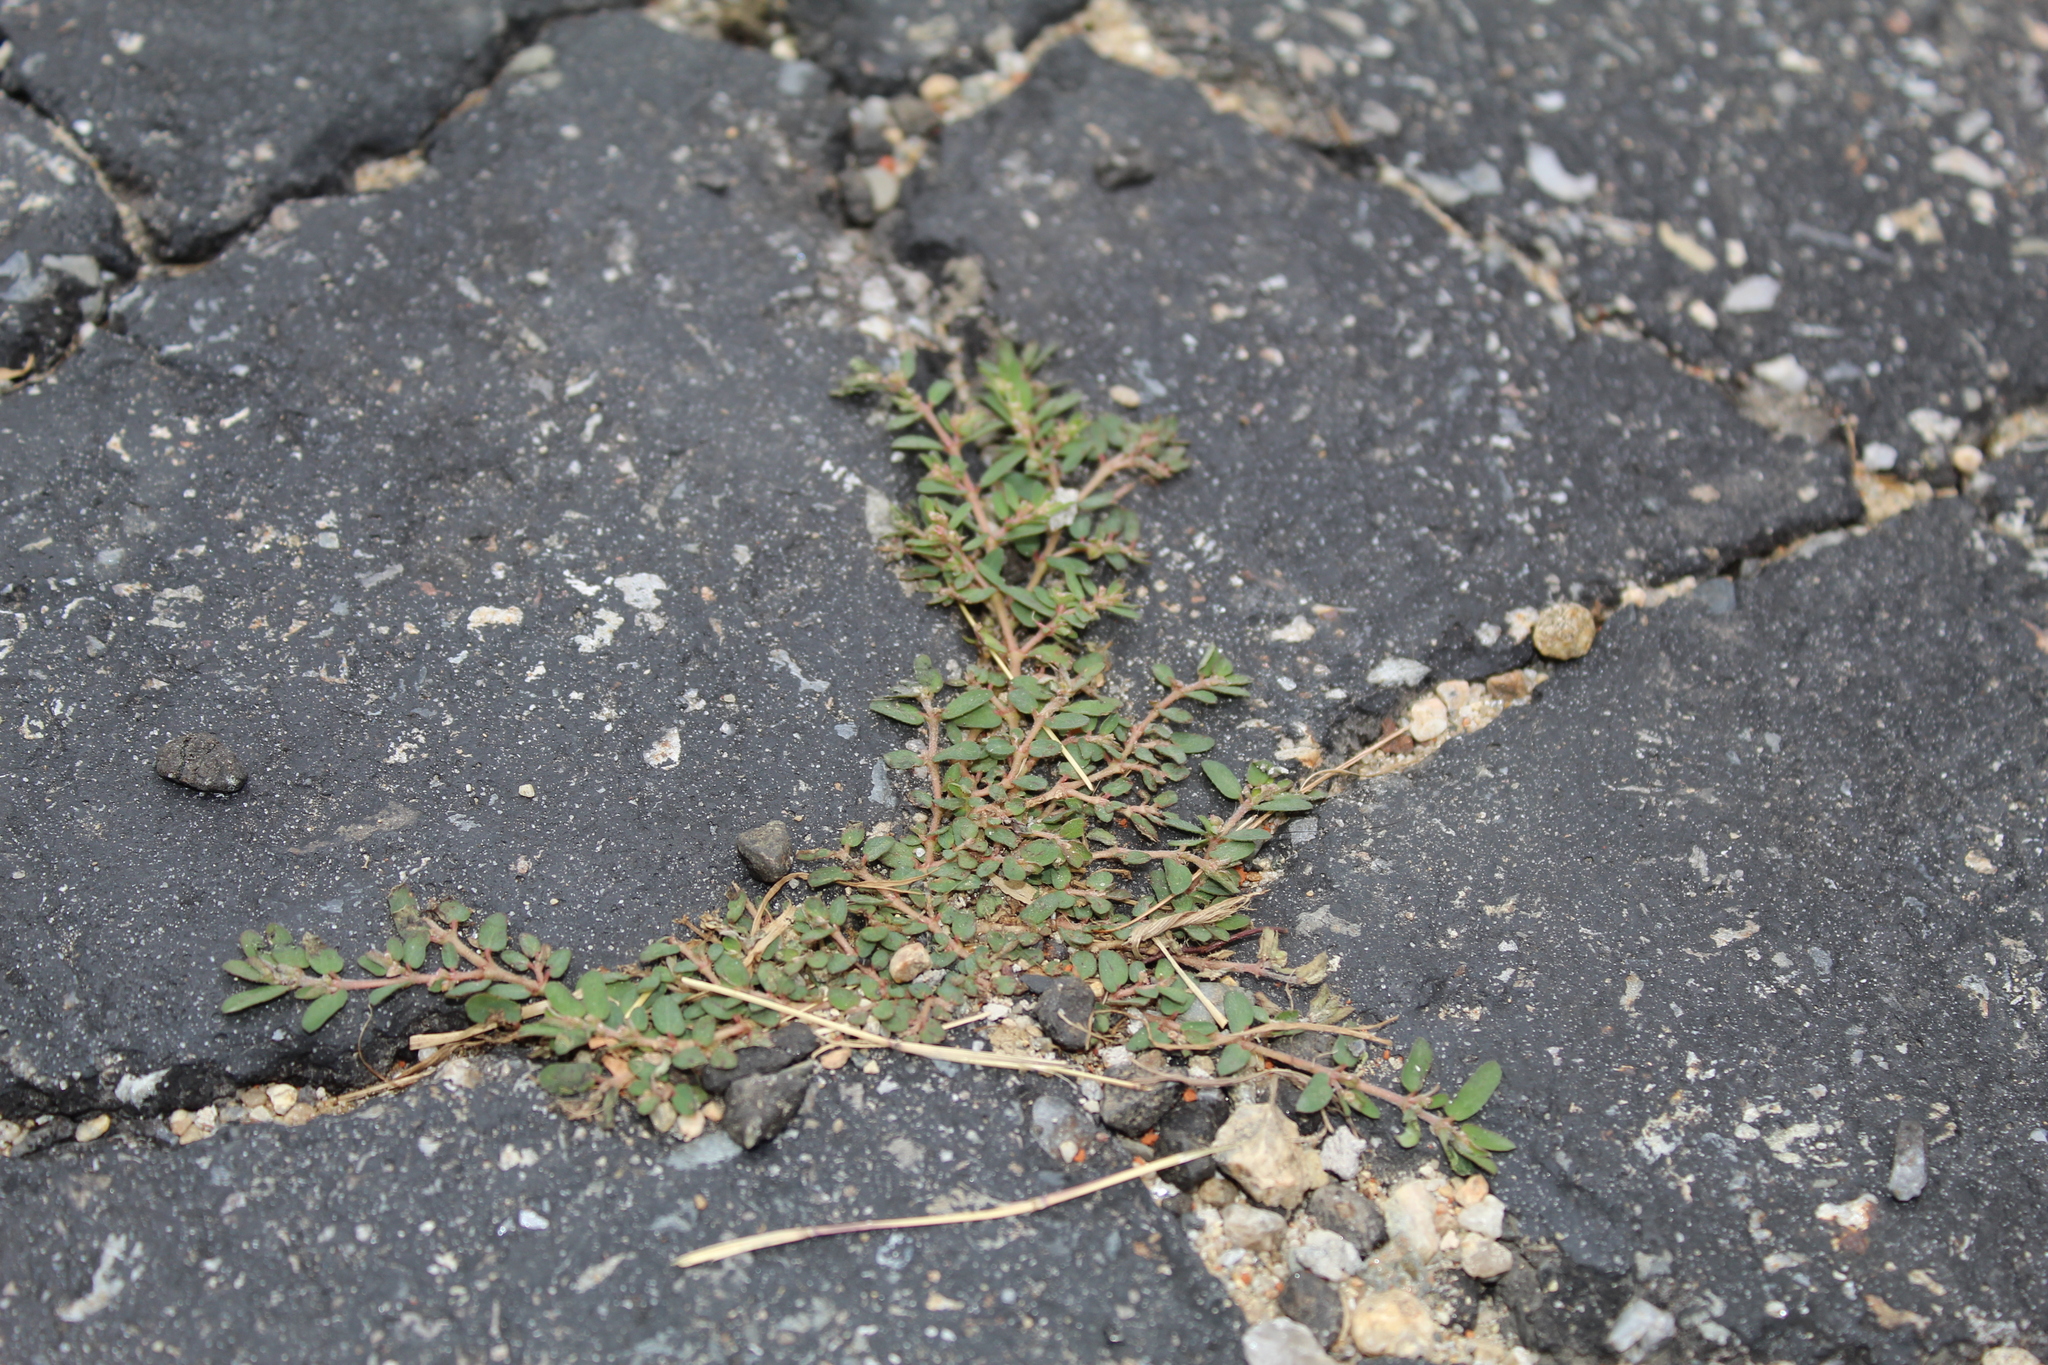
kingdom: Plantae
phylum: Tracheophyta
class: Magnoliopsida
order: Malpighiales
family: Euphorbiaceae
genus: Euphorbia
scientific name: Euphorbia maculata
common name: Spotted spurge
